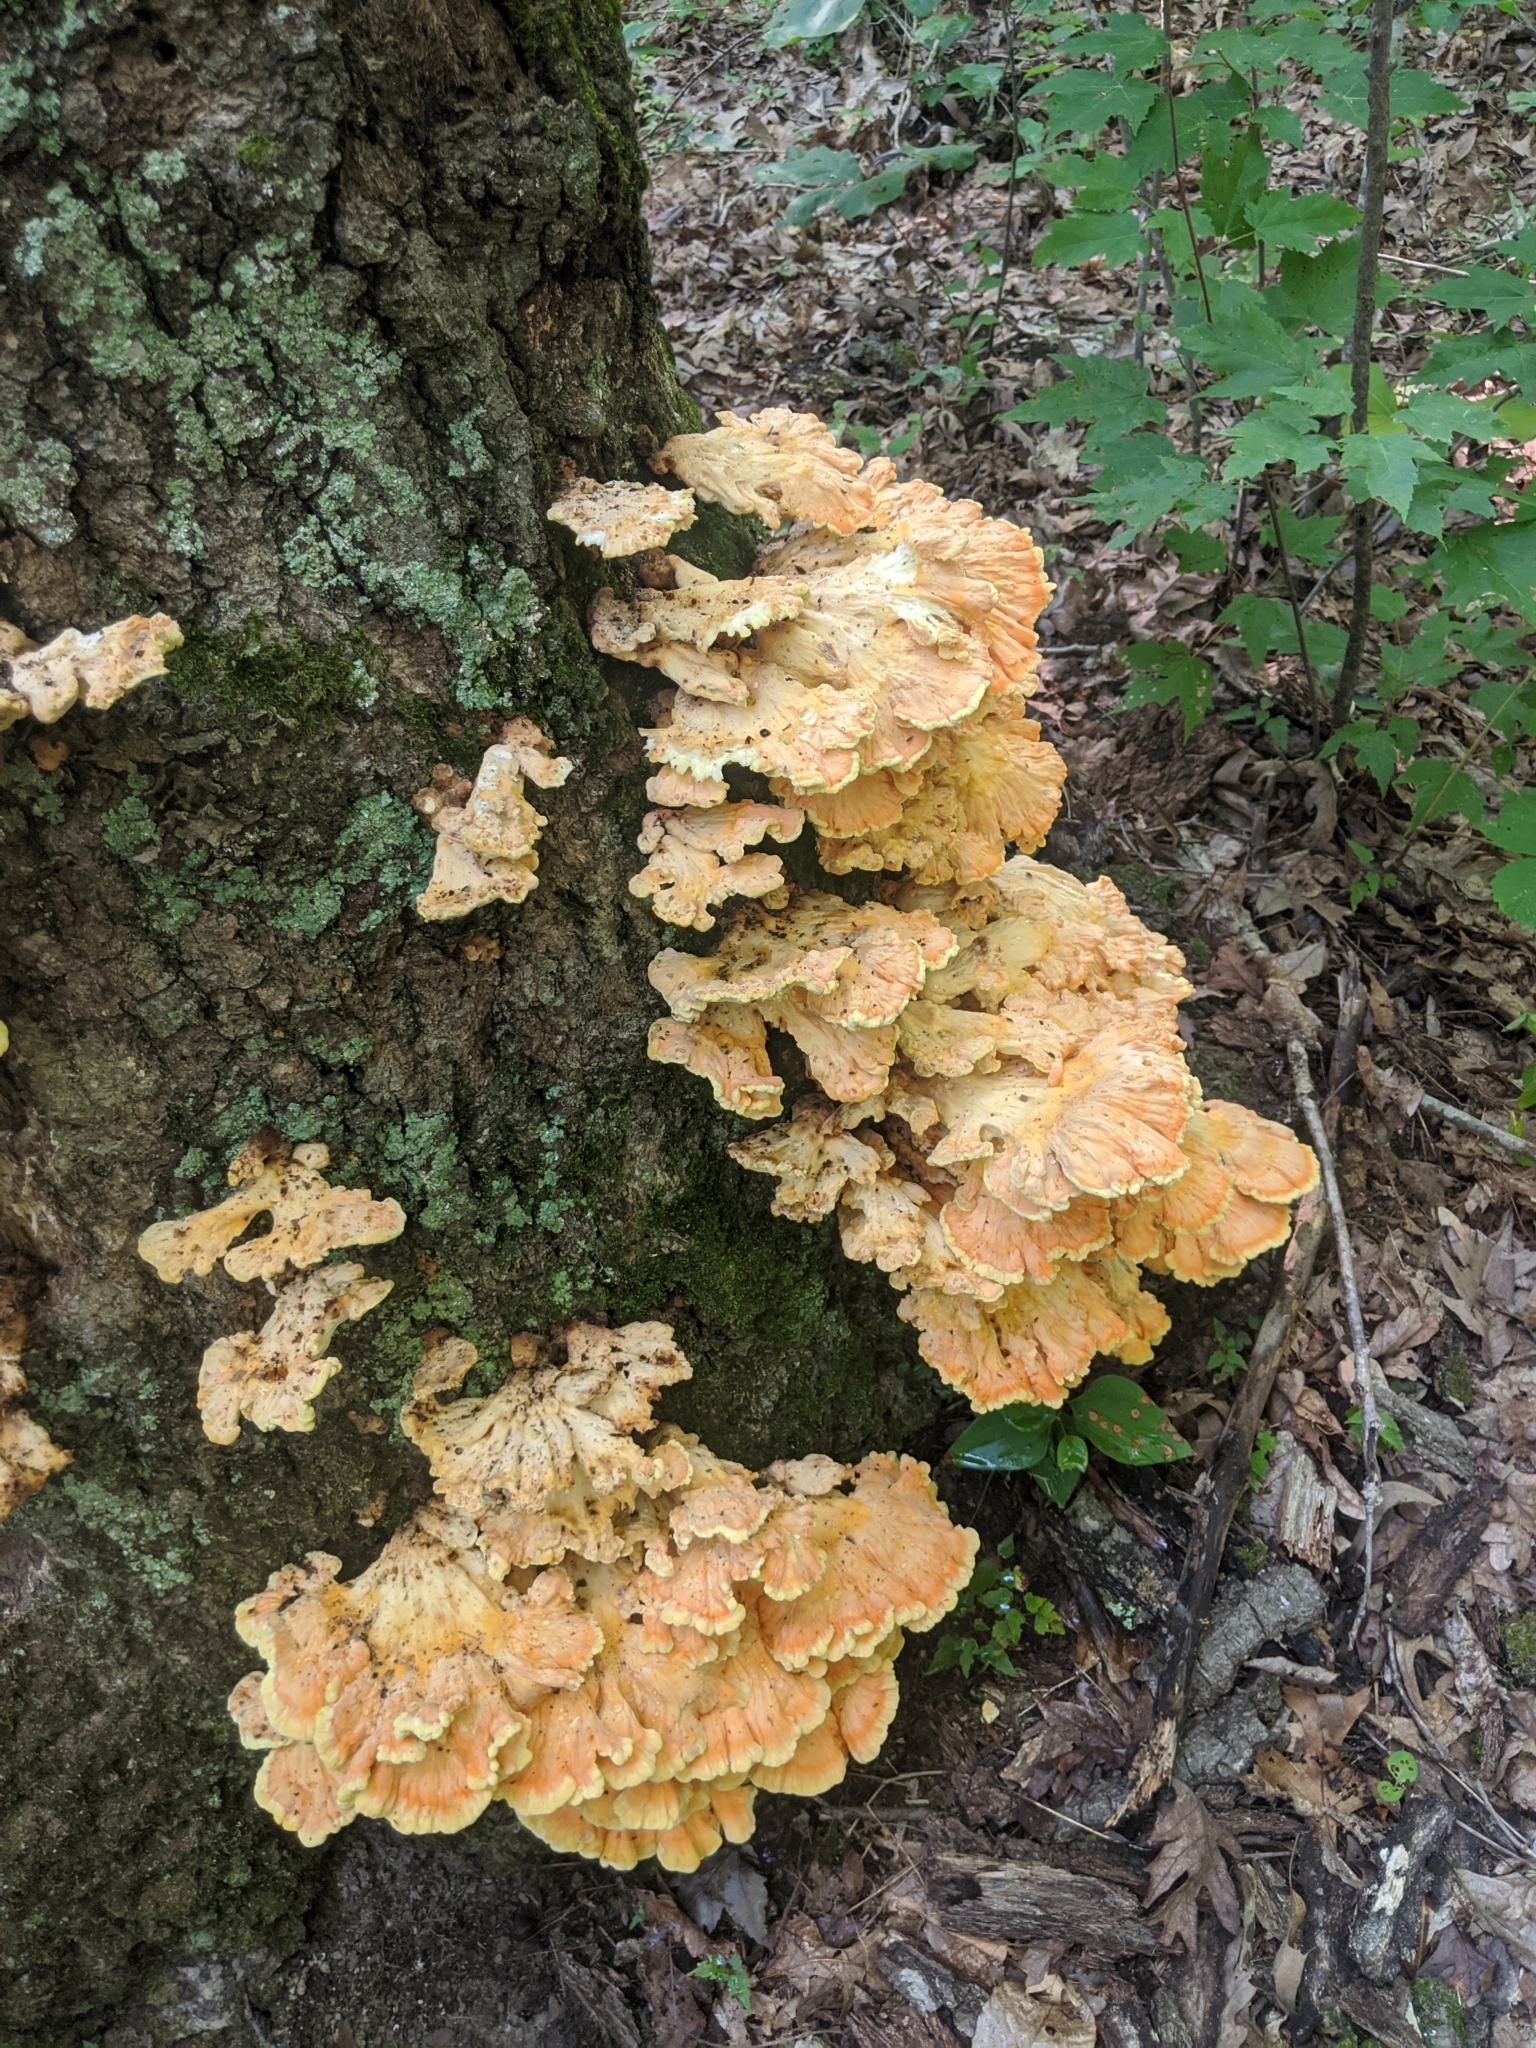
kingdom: Fungi
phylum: Basidiomycota
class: Agaricomycetes
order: Polyporales
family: Laetiporaceae
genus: Laetiporus
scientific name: Laetiporus sulphureus
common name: Chicken of the woods
